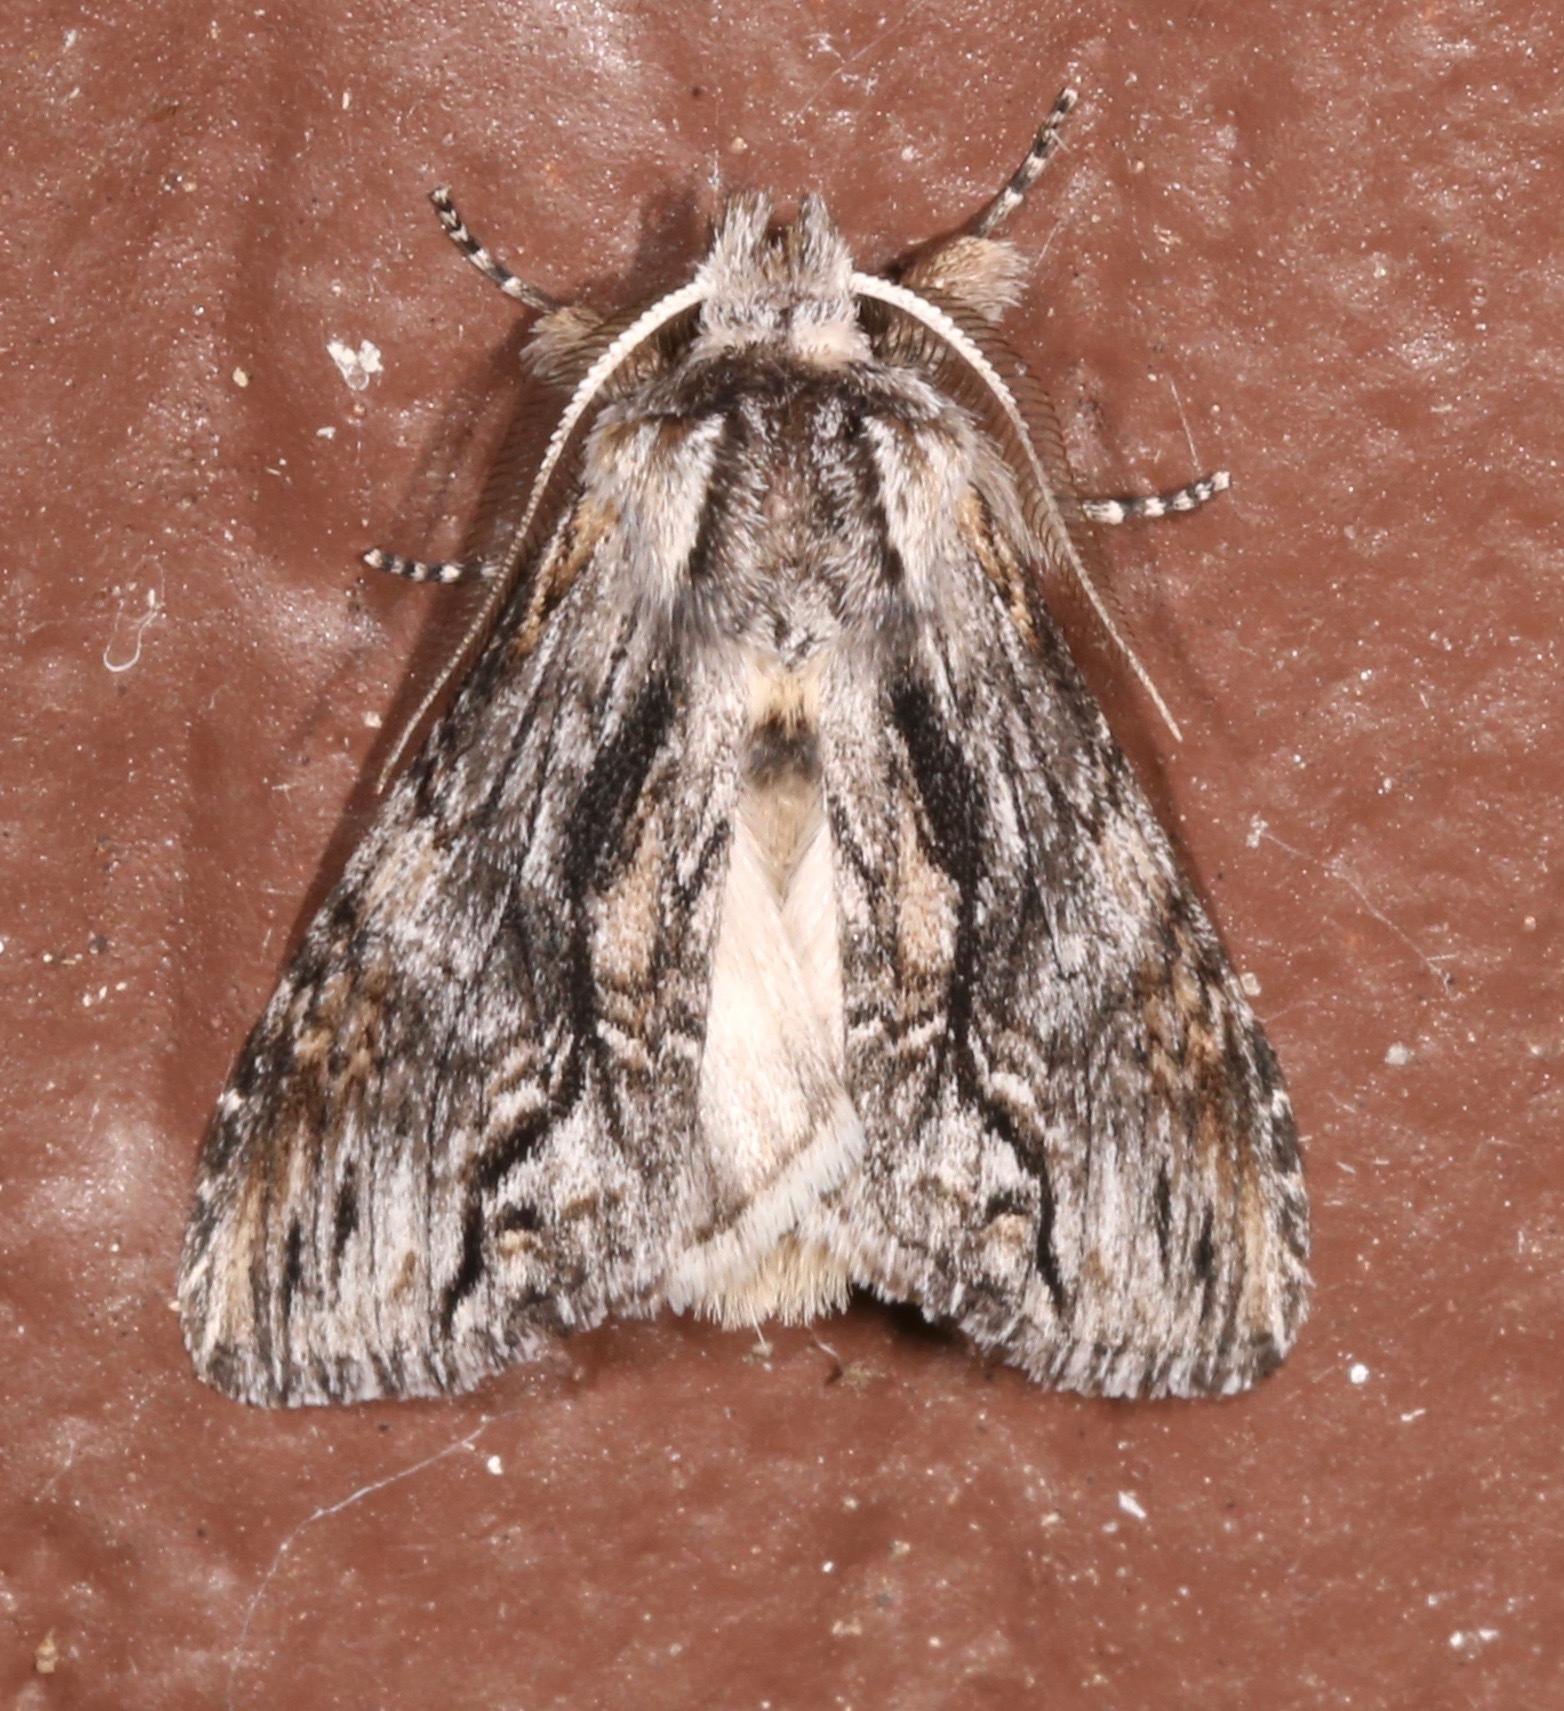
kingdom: Animalia
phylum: Arthropoda
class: Insecta
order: Lepidoptera
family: Notodontidae
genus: Notela
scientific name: Notela jaliscana
